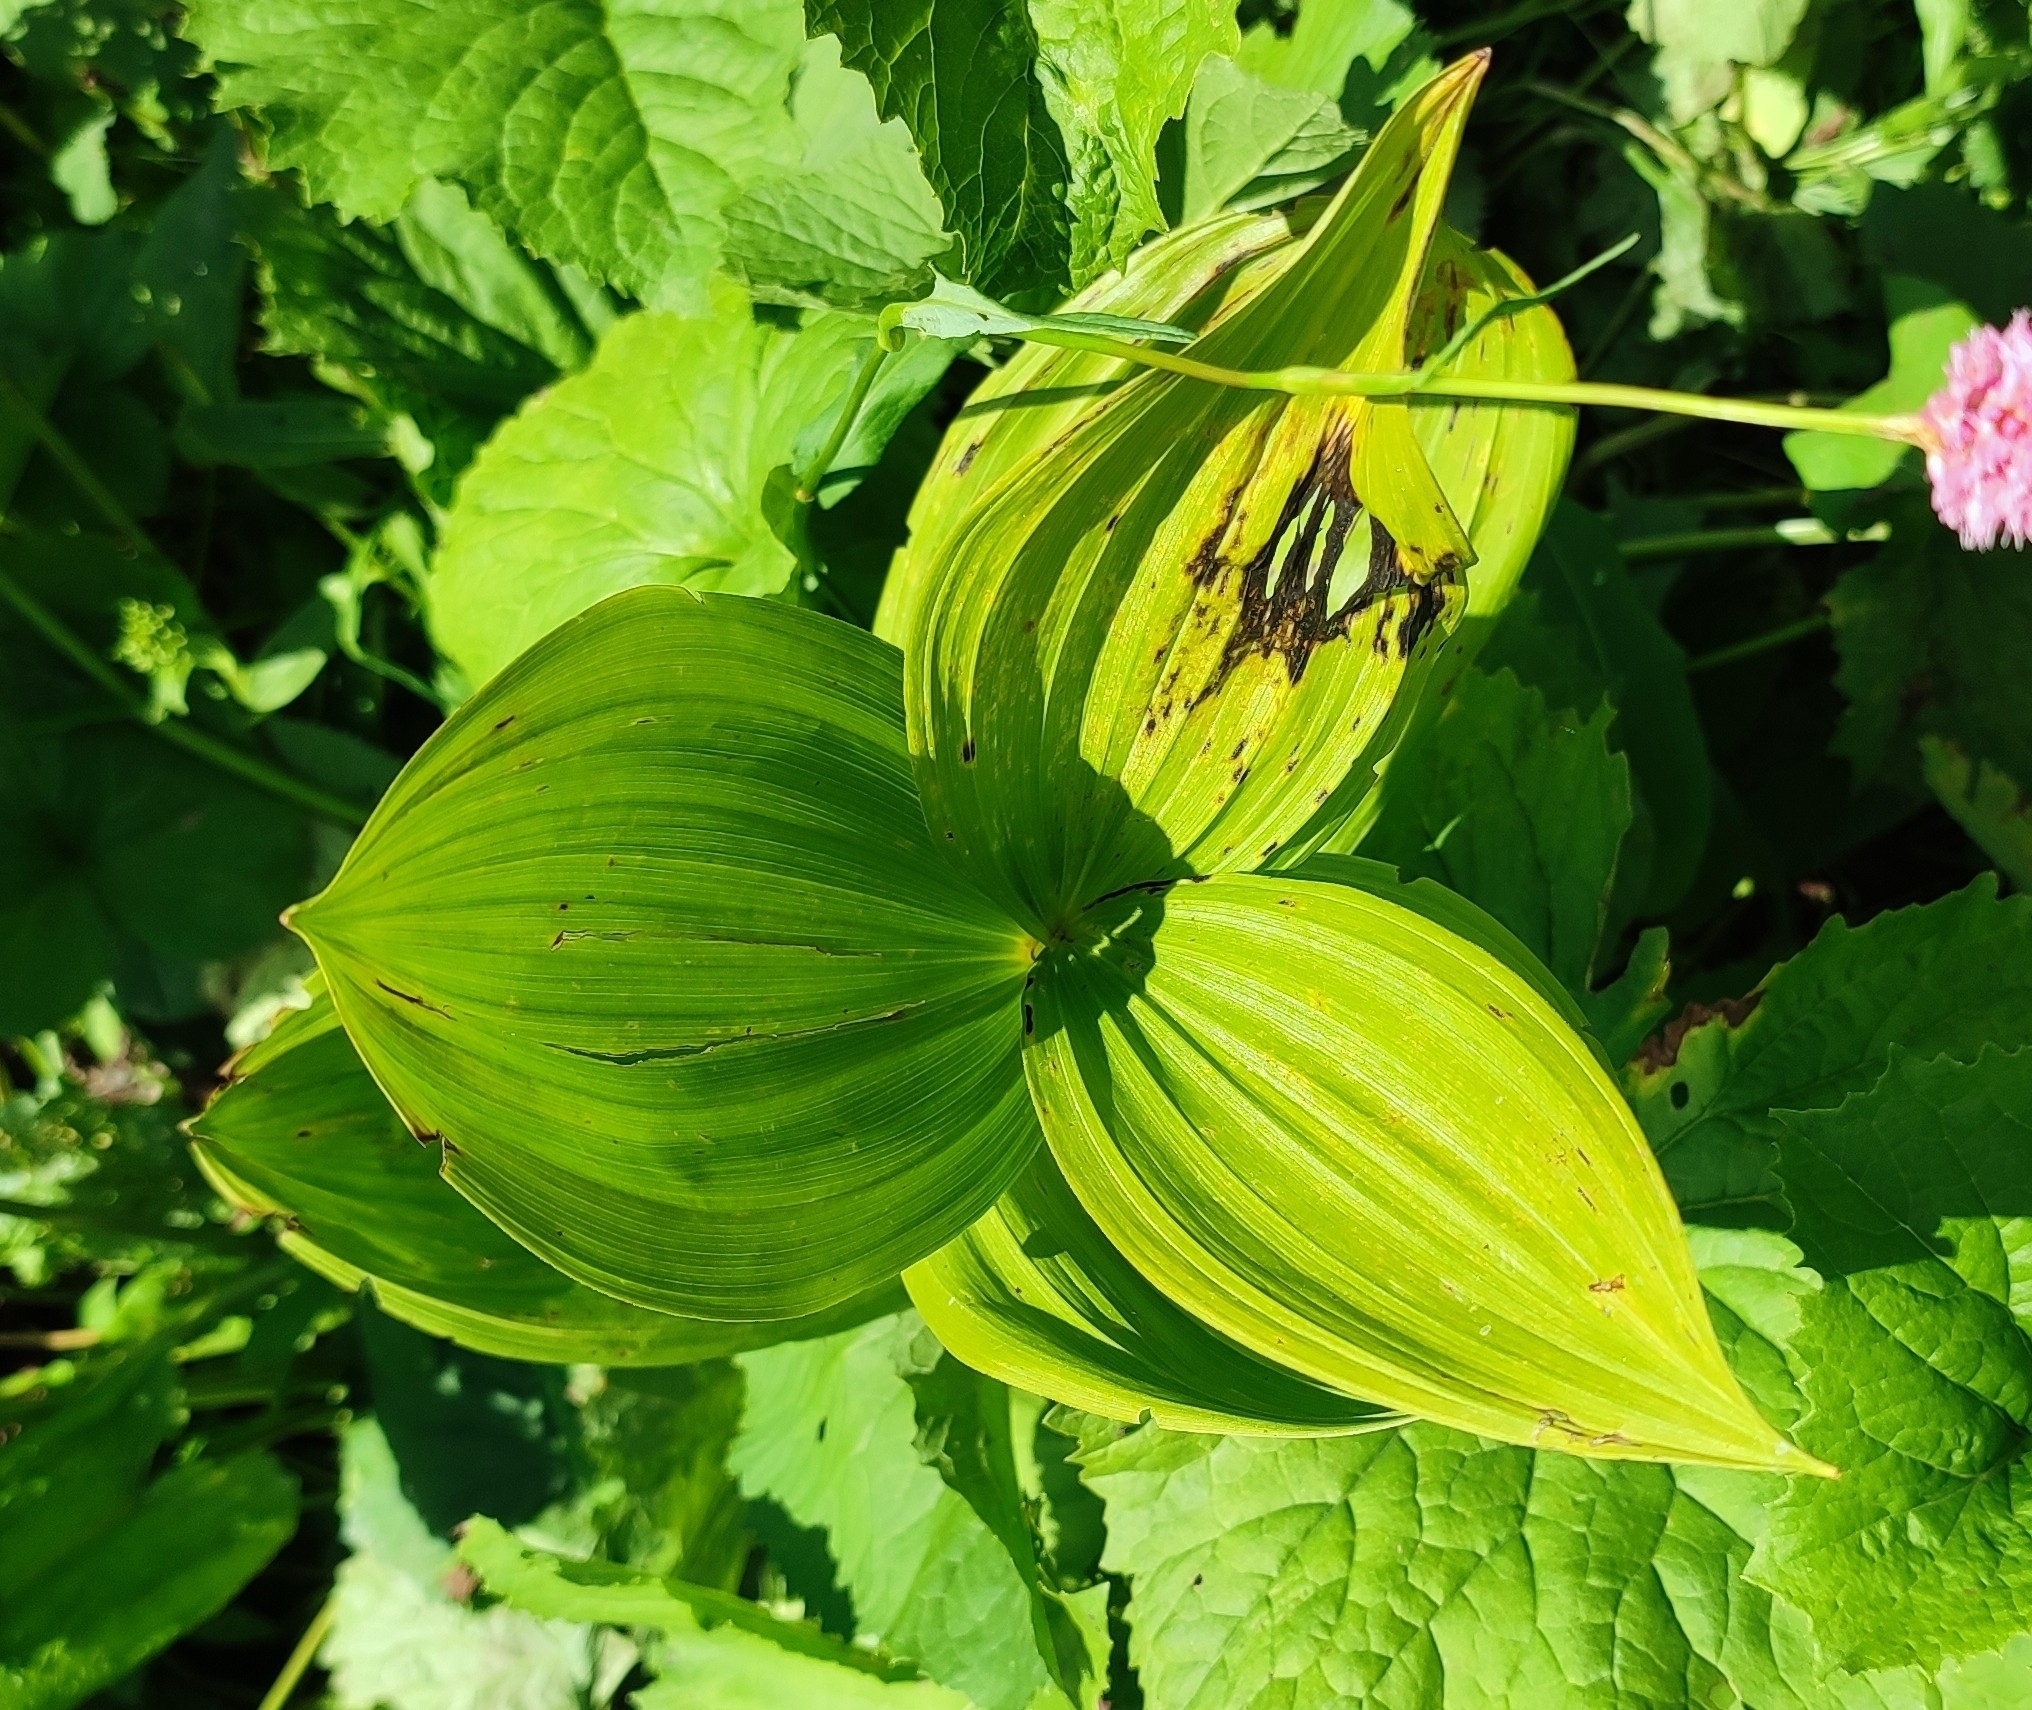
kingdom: Plantae
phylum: Tracheophyta
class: Liliopsida
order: Liliales
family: Melanthiaceae
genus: Veratrum
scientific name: Veratrum lobelianum
